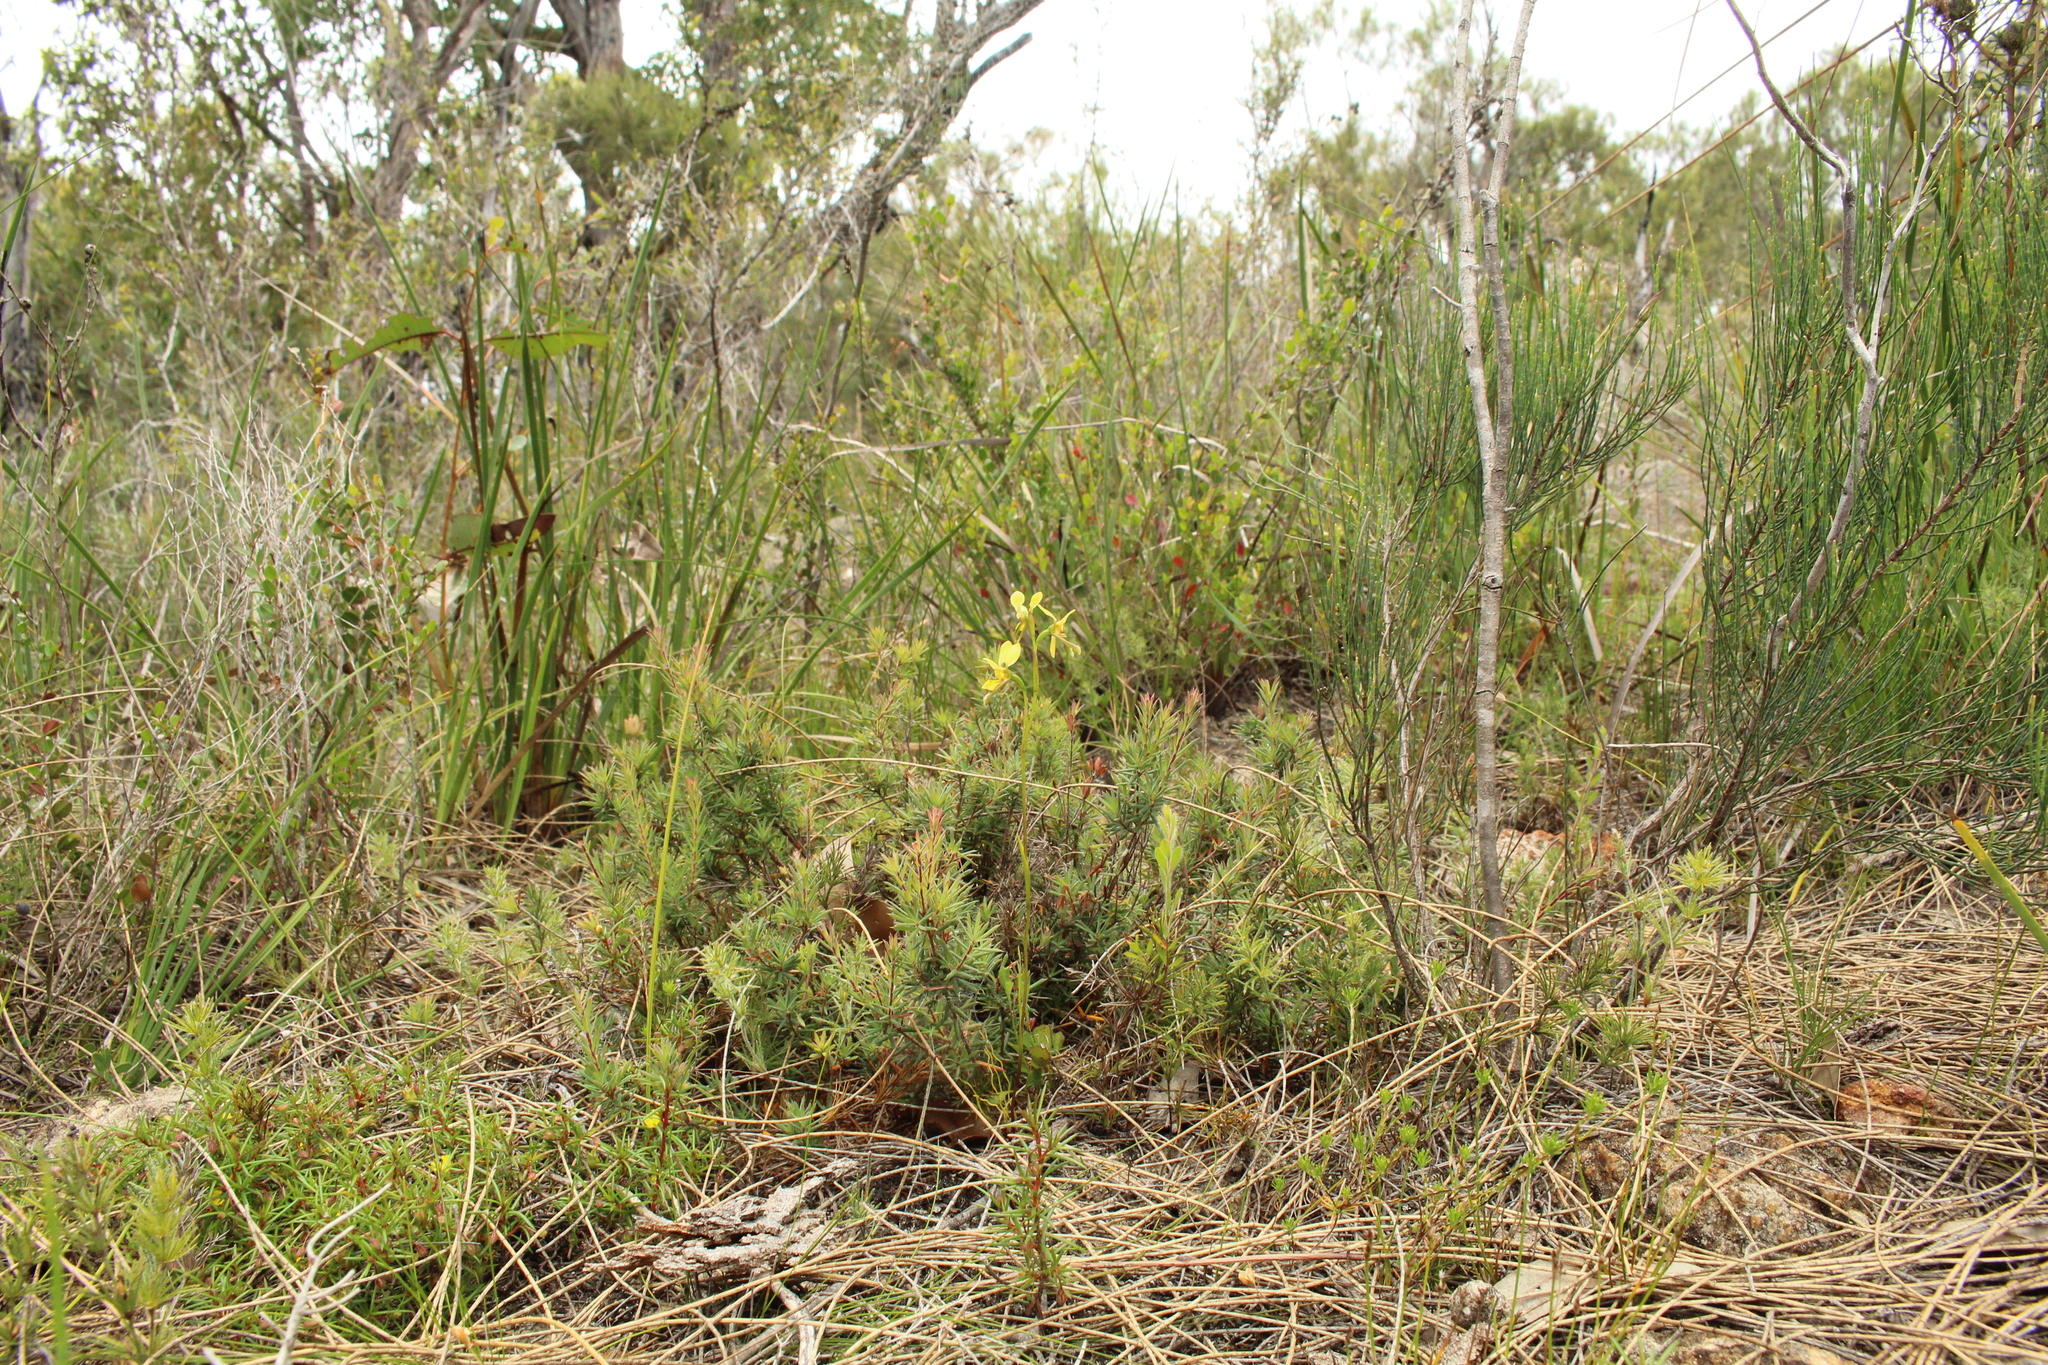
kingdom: Plantae
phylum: Tracheophyta
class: Liliopsida
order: Asparagales
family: Orchidaceae
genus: Diuris
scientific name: Diuris setacea
